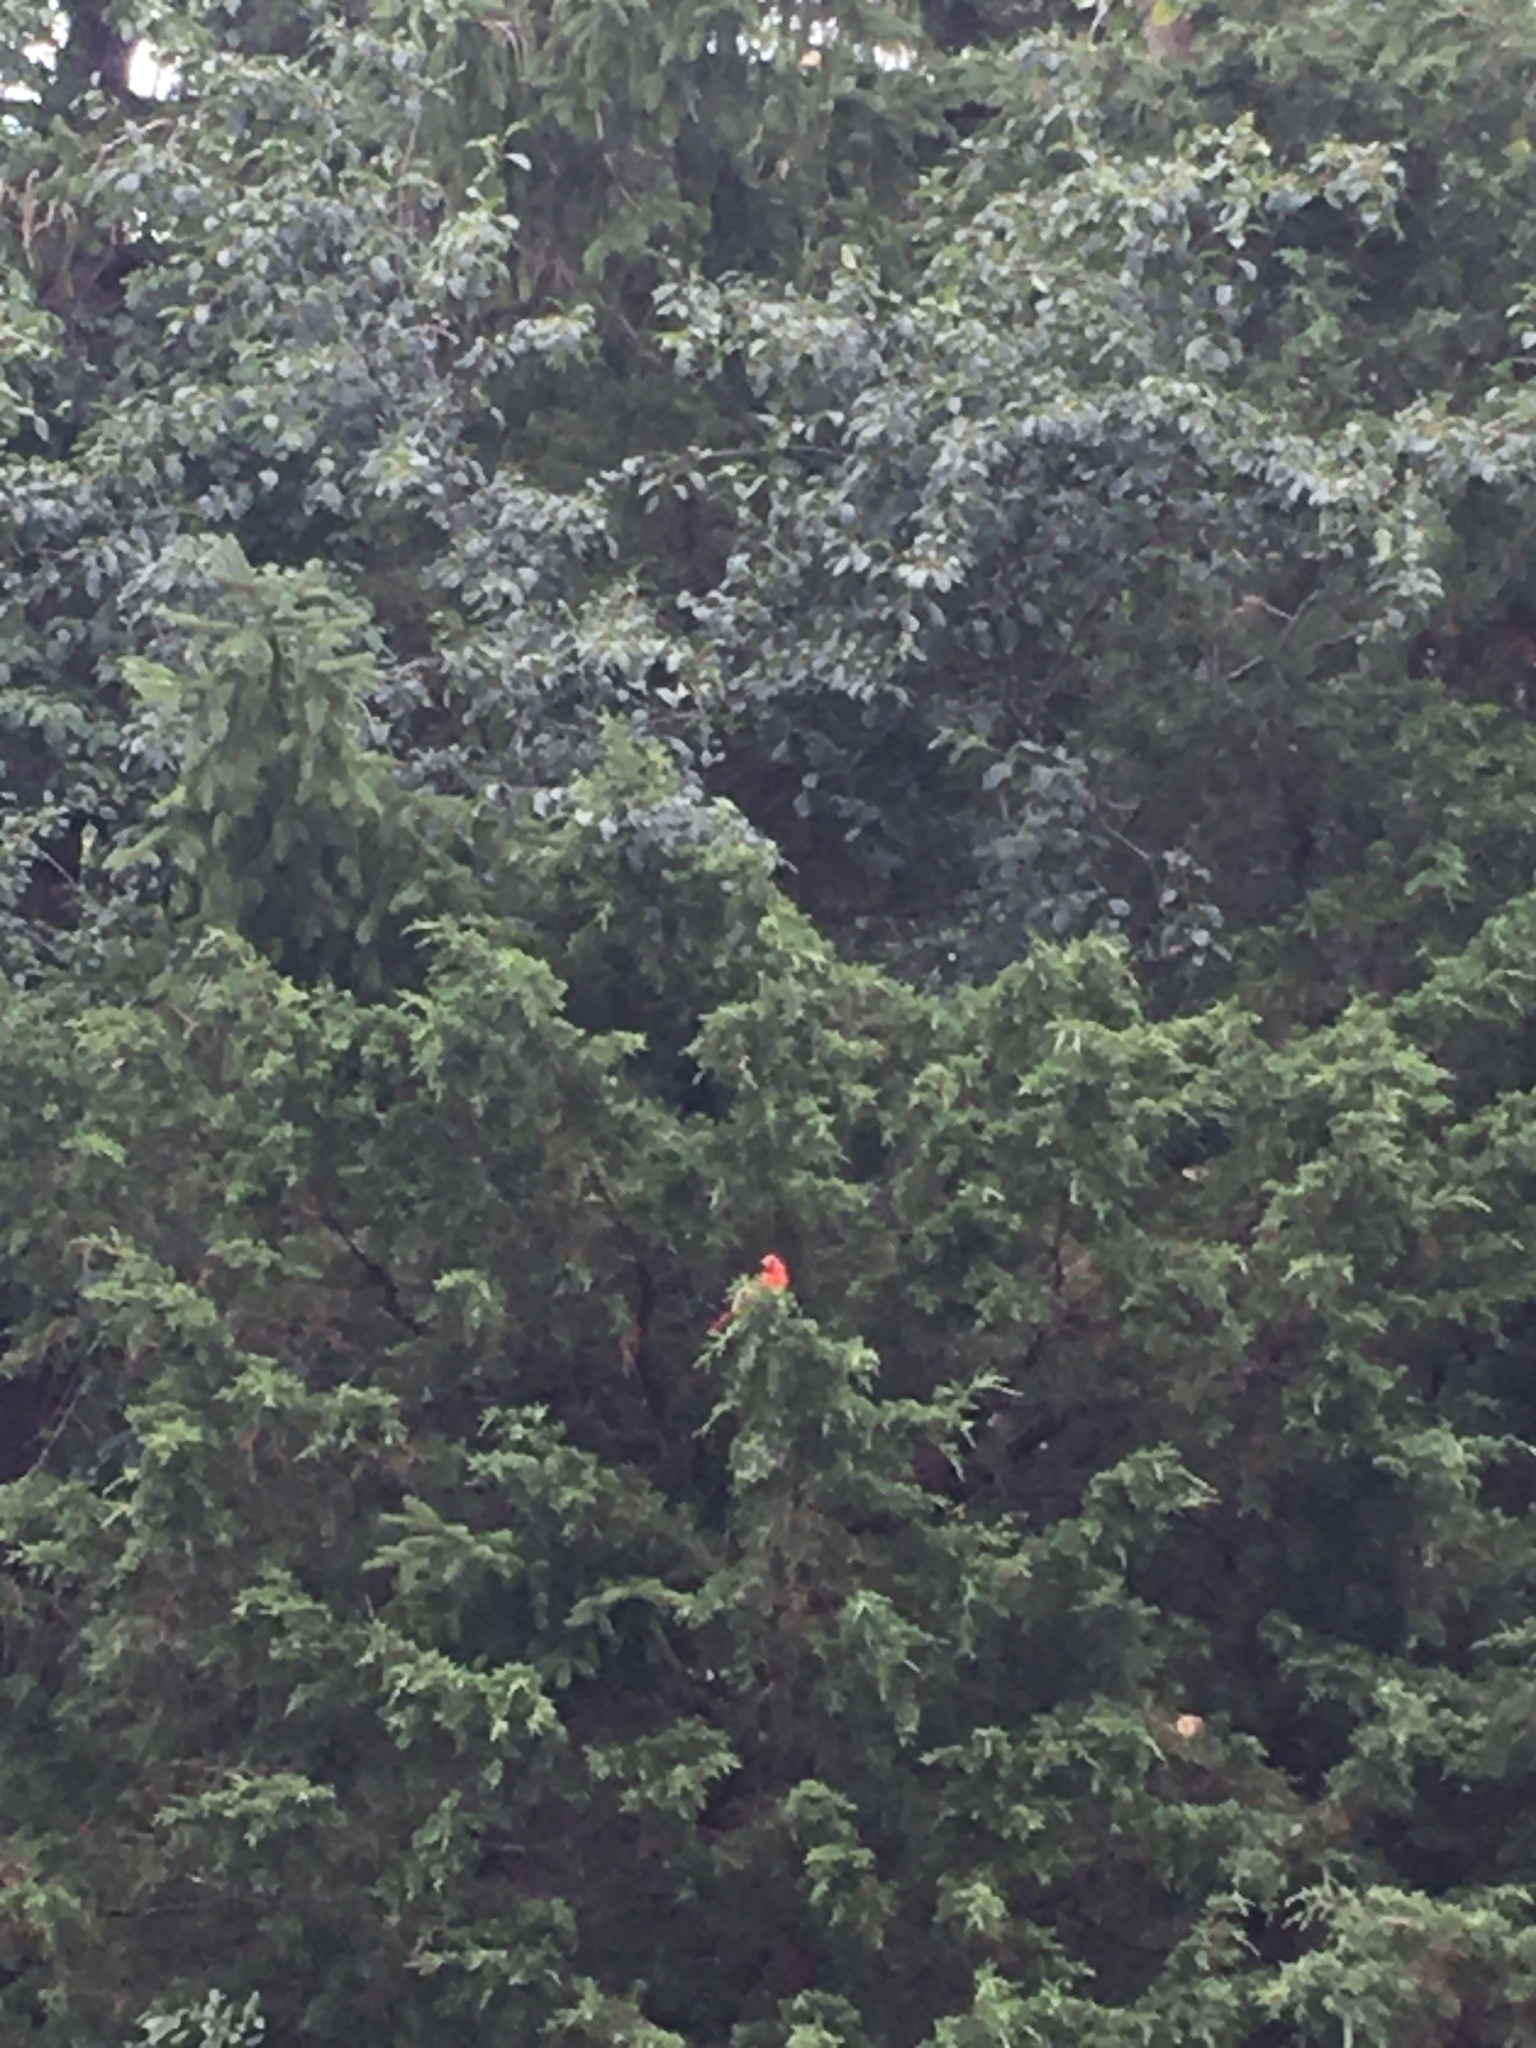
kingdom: Animalia
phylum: Chordata
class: Aves
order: Passeriformes
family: Cardinalidae
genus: Cardinalis
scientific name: Cardinalis cardinalis
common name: Northern cardinal
